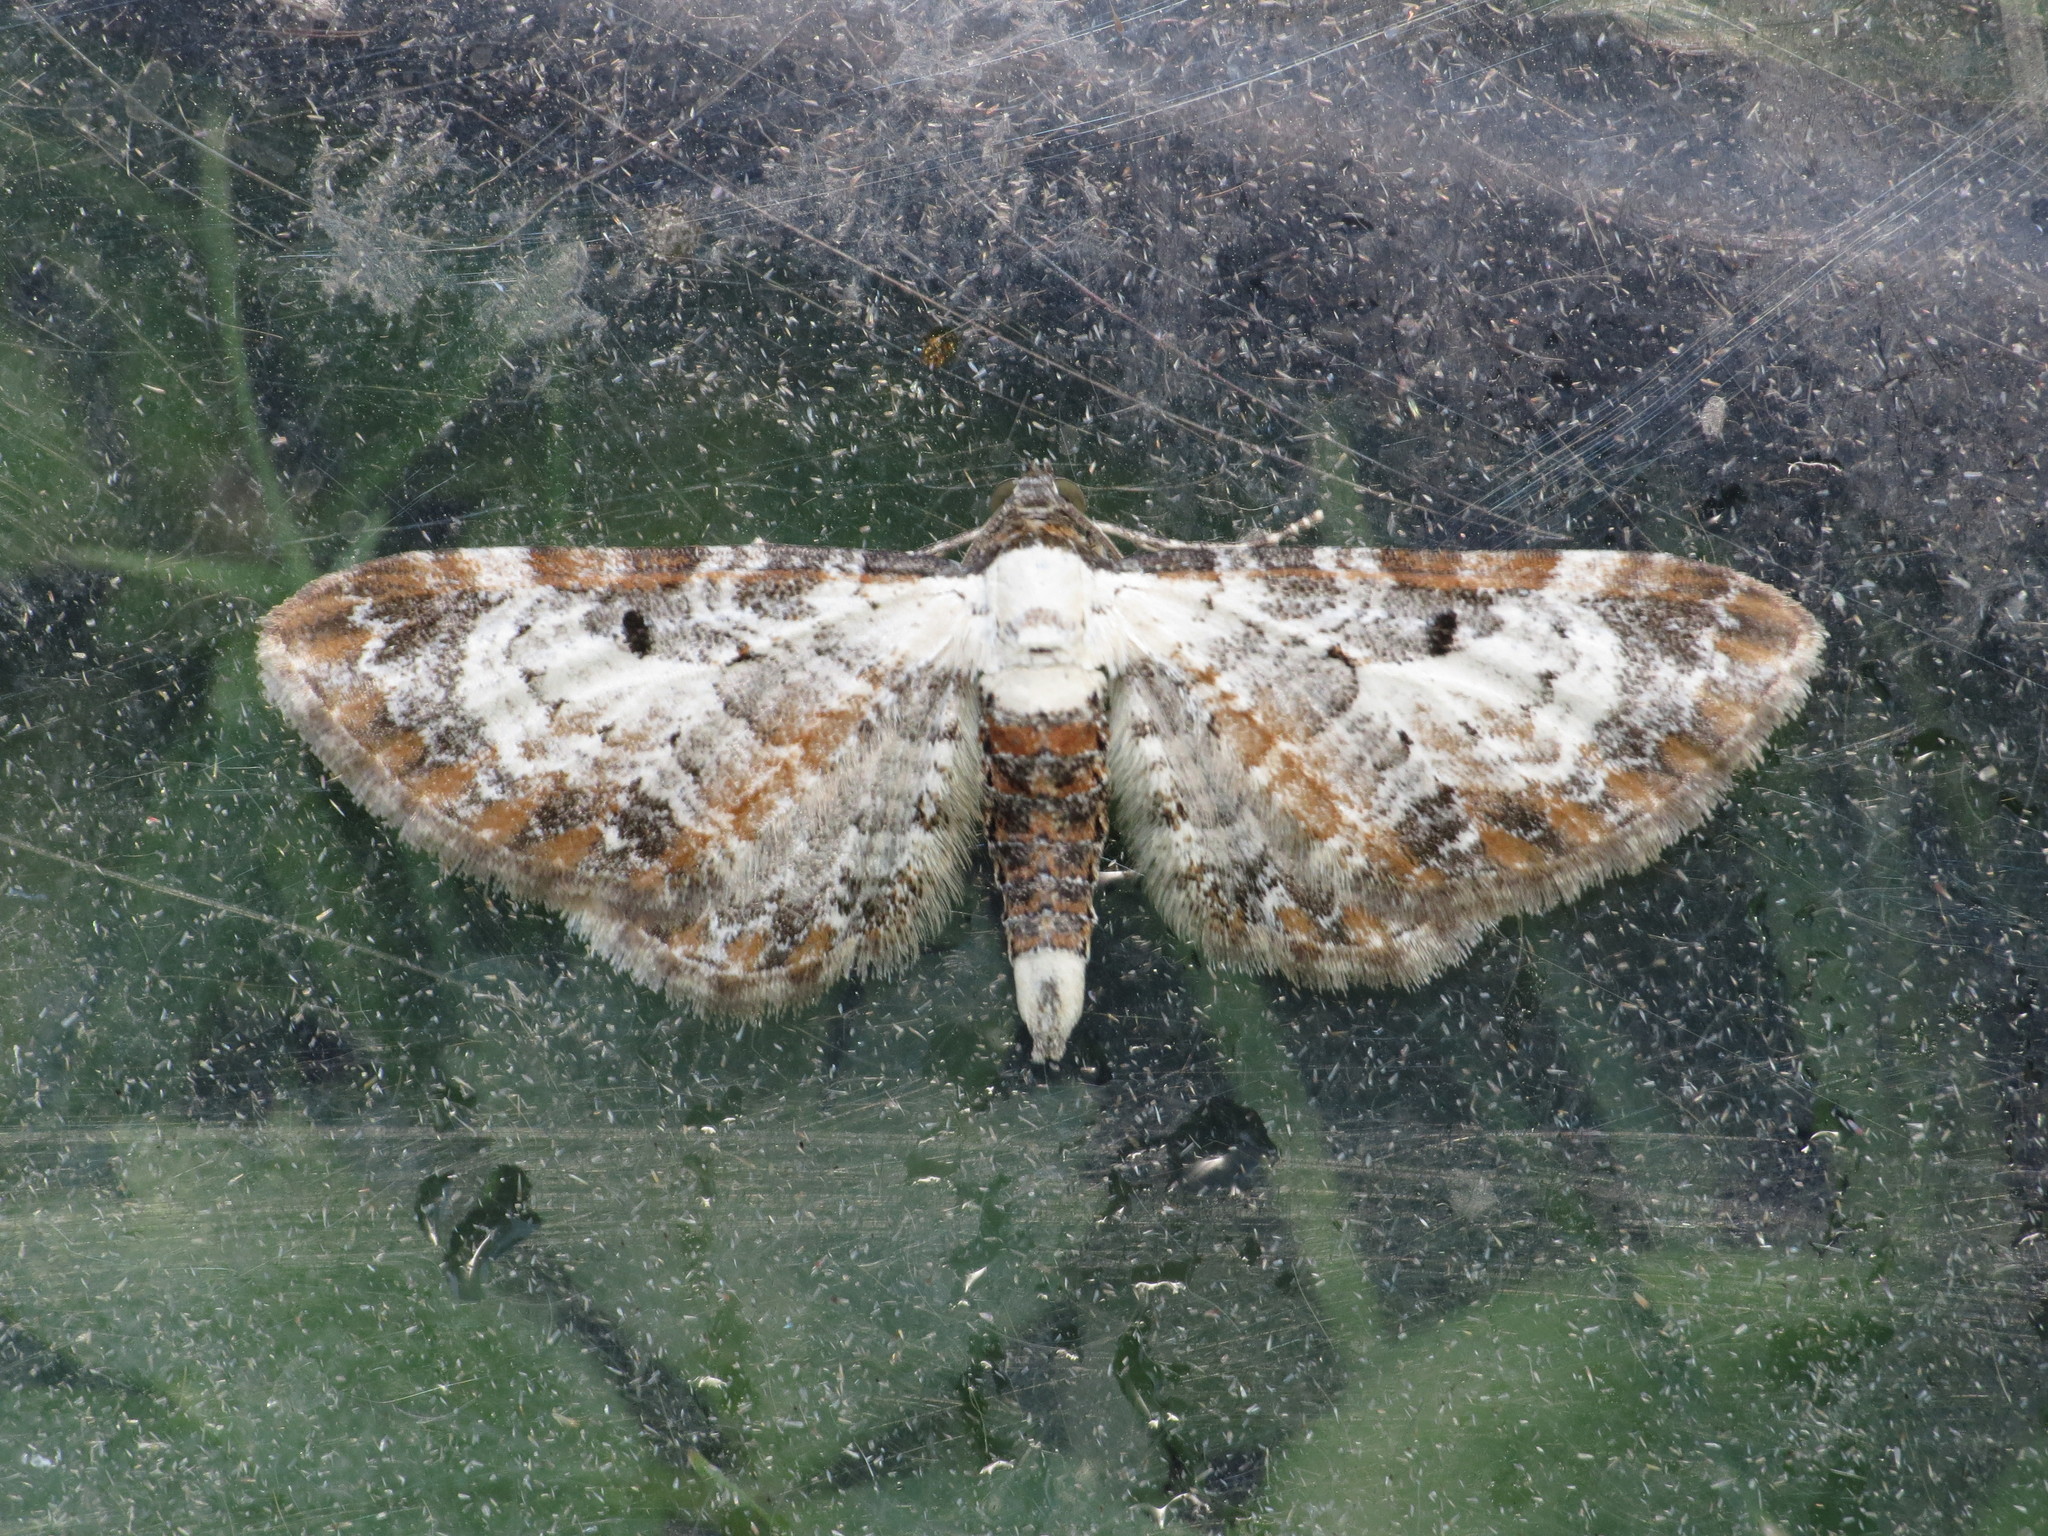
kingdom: Animalia
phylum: Arthropoda
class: Insecta
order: Lepidoptera
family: Geometridae
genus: Eupithecia
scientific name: Eupithecia succenturiata
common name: Bordered pug
